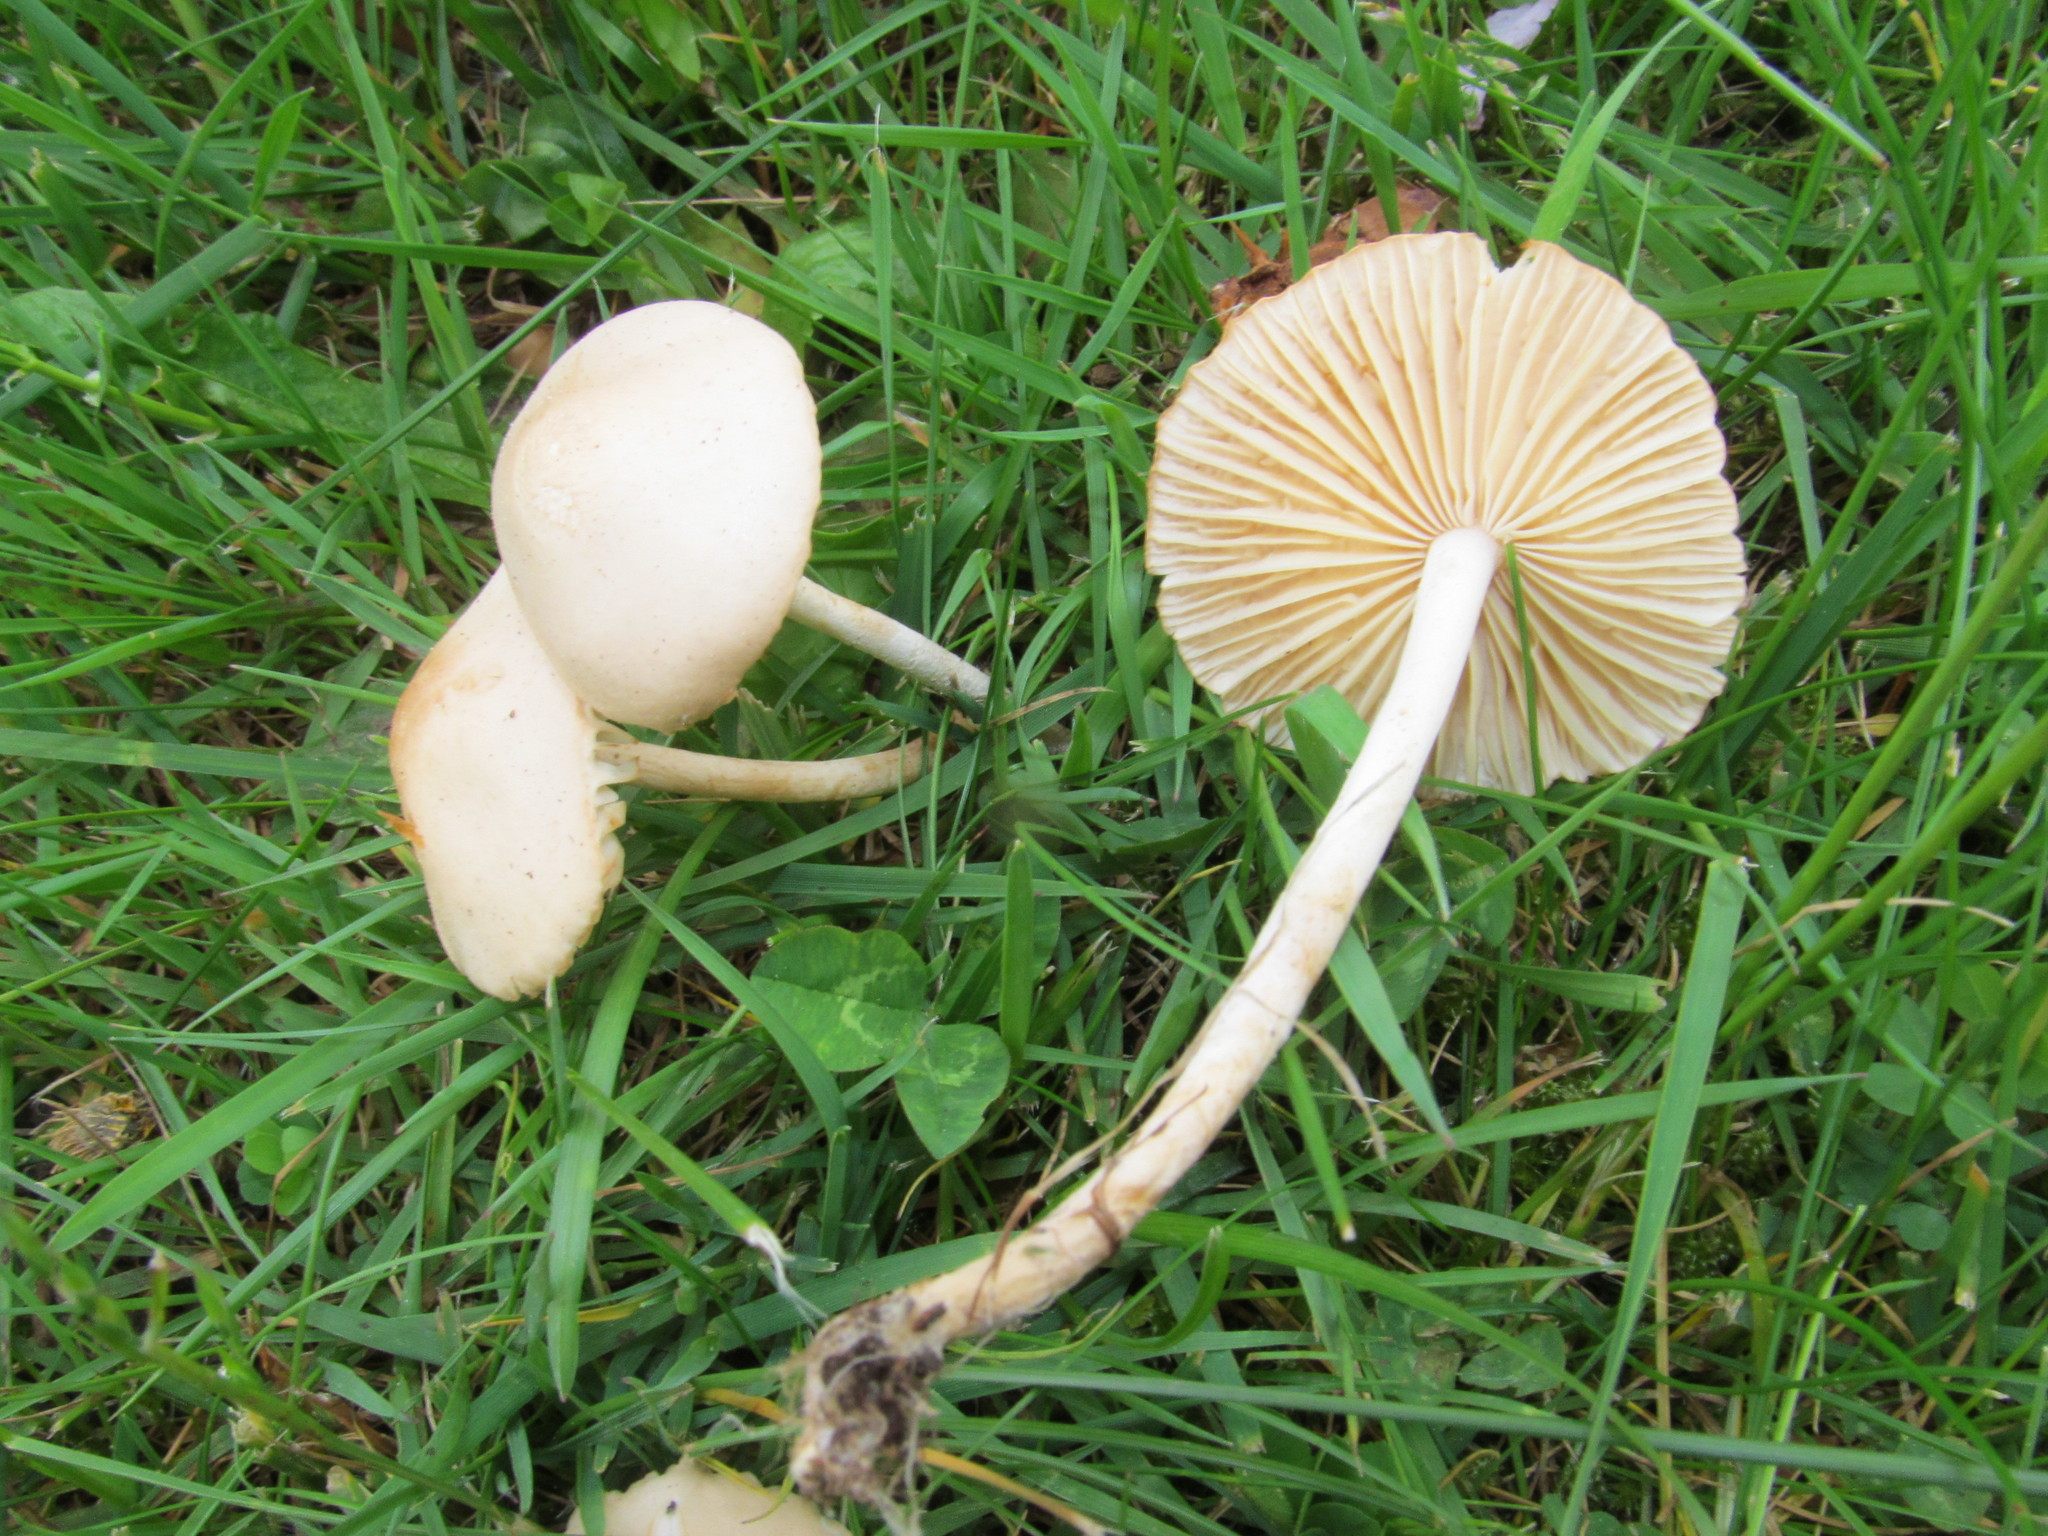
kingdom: Fungi
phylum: Basidiomycota
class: Agaricomycetes
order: Agaricales
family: Marasmiaceae
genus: Marasmius
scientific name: Marasmius oreades
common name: Fairy ring champignon
